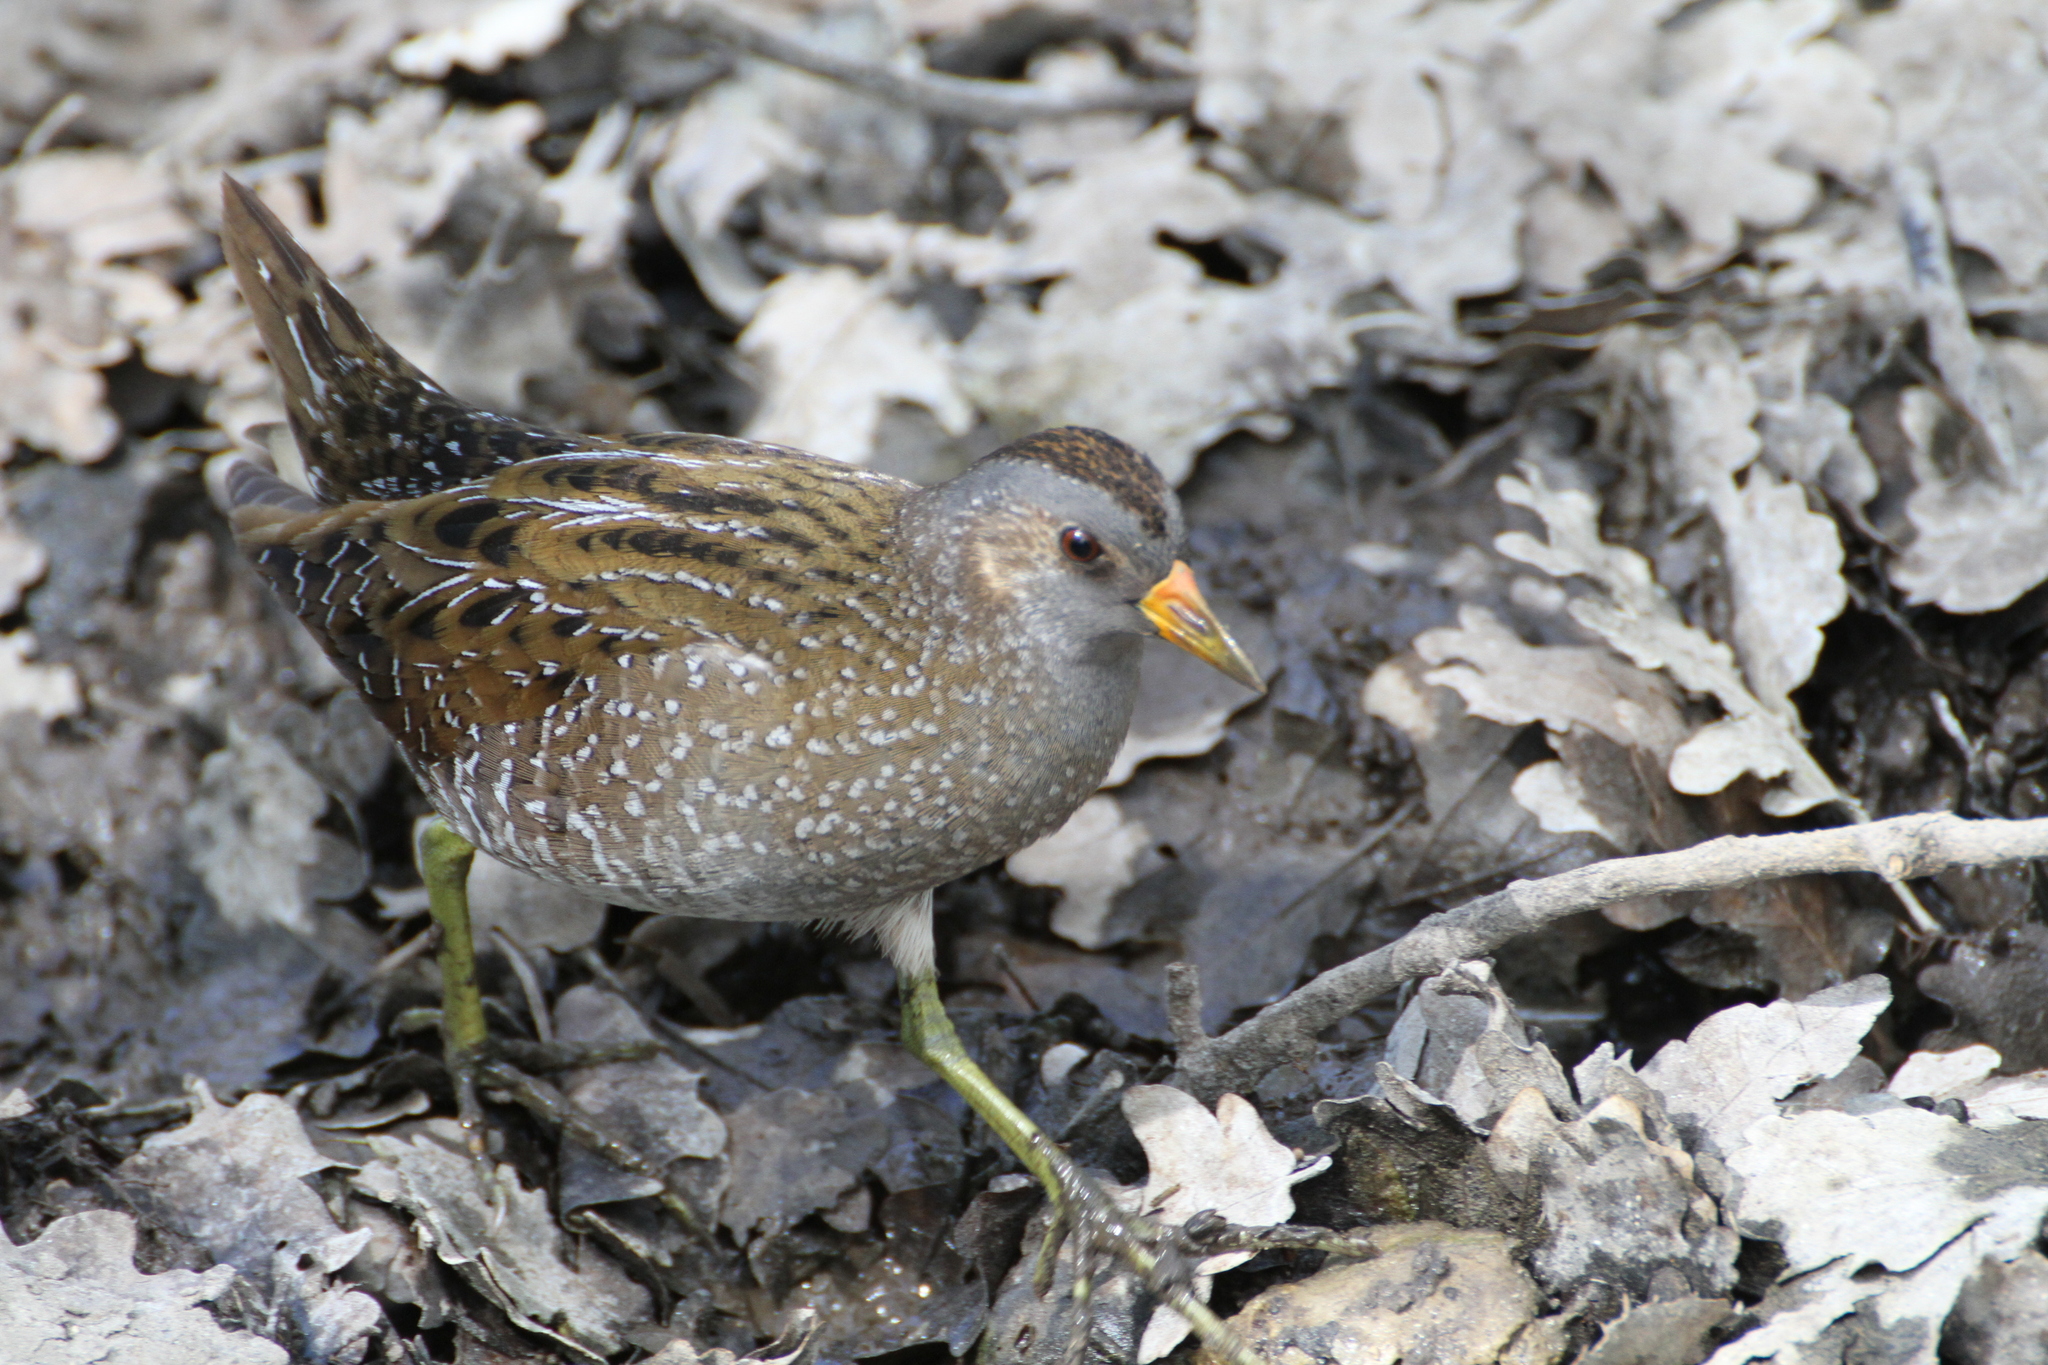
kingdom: Animalia
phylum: Chordata
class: Aves
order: Gruiformes
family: Rallidae
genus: Porzana
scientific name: Porzana porzana
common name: Spotted crake
